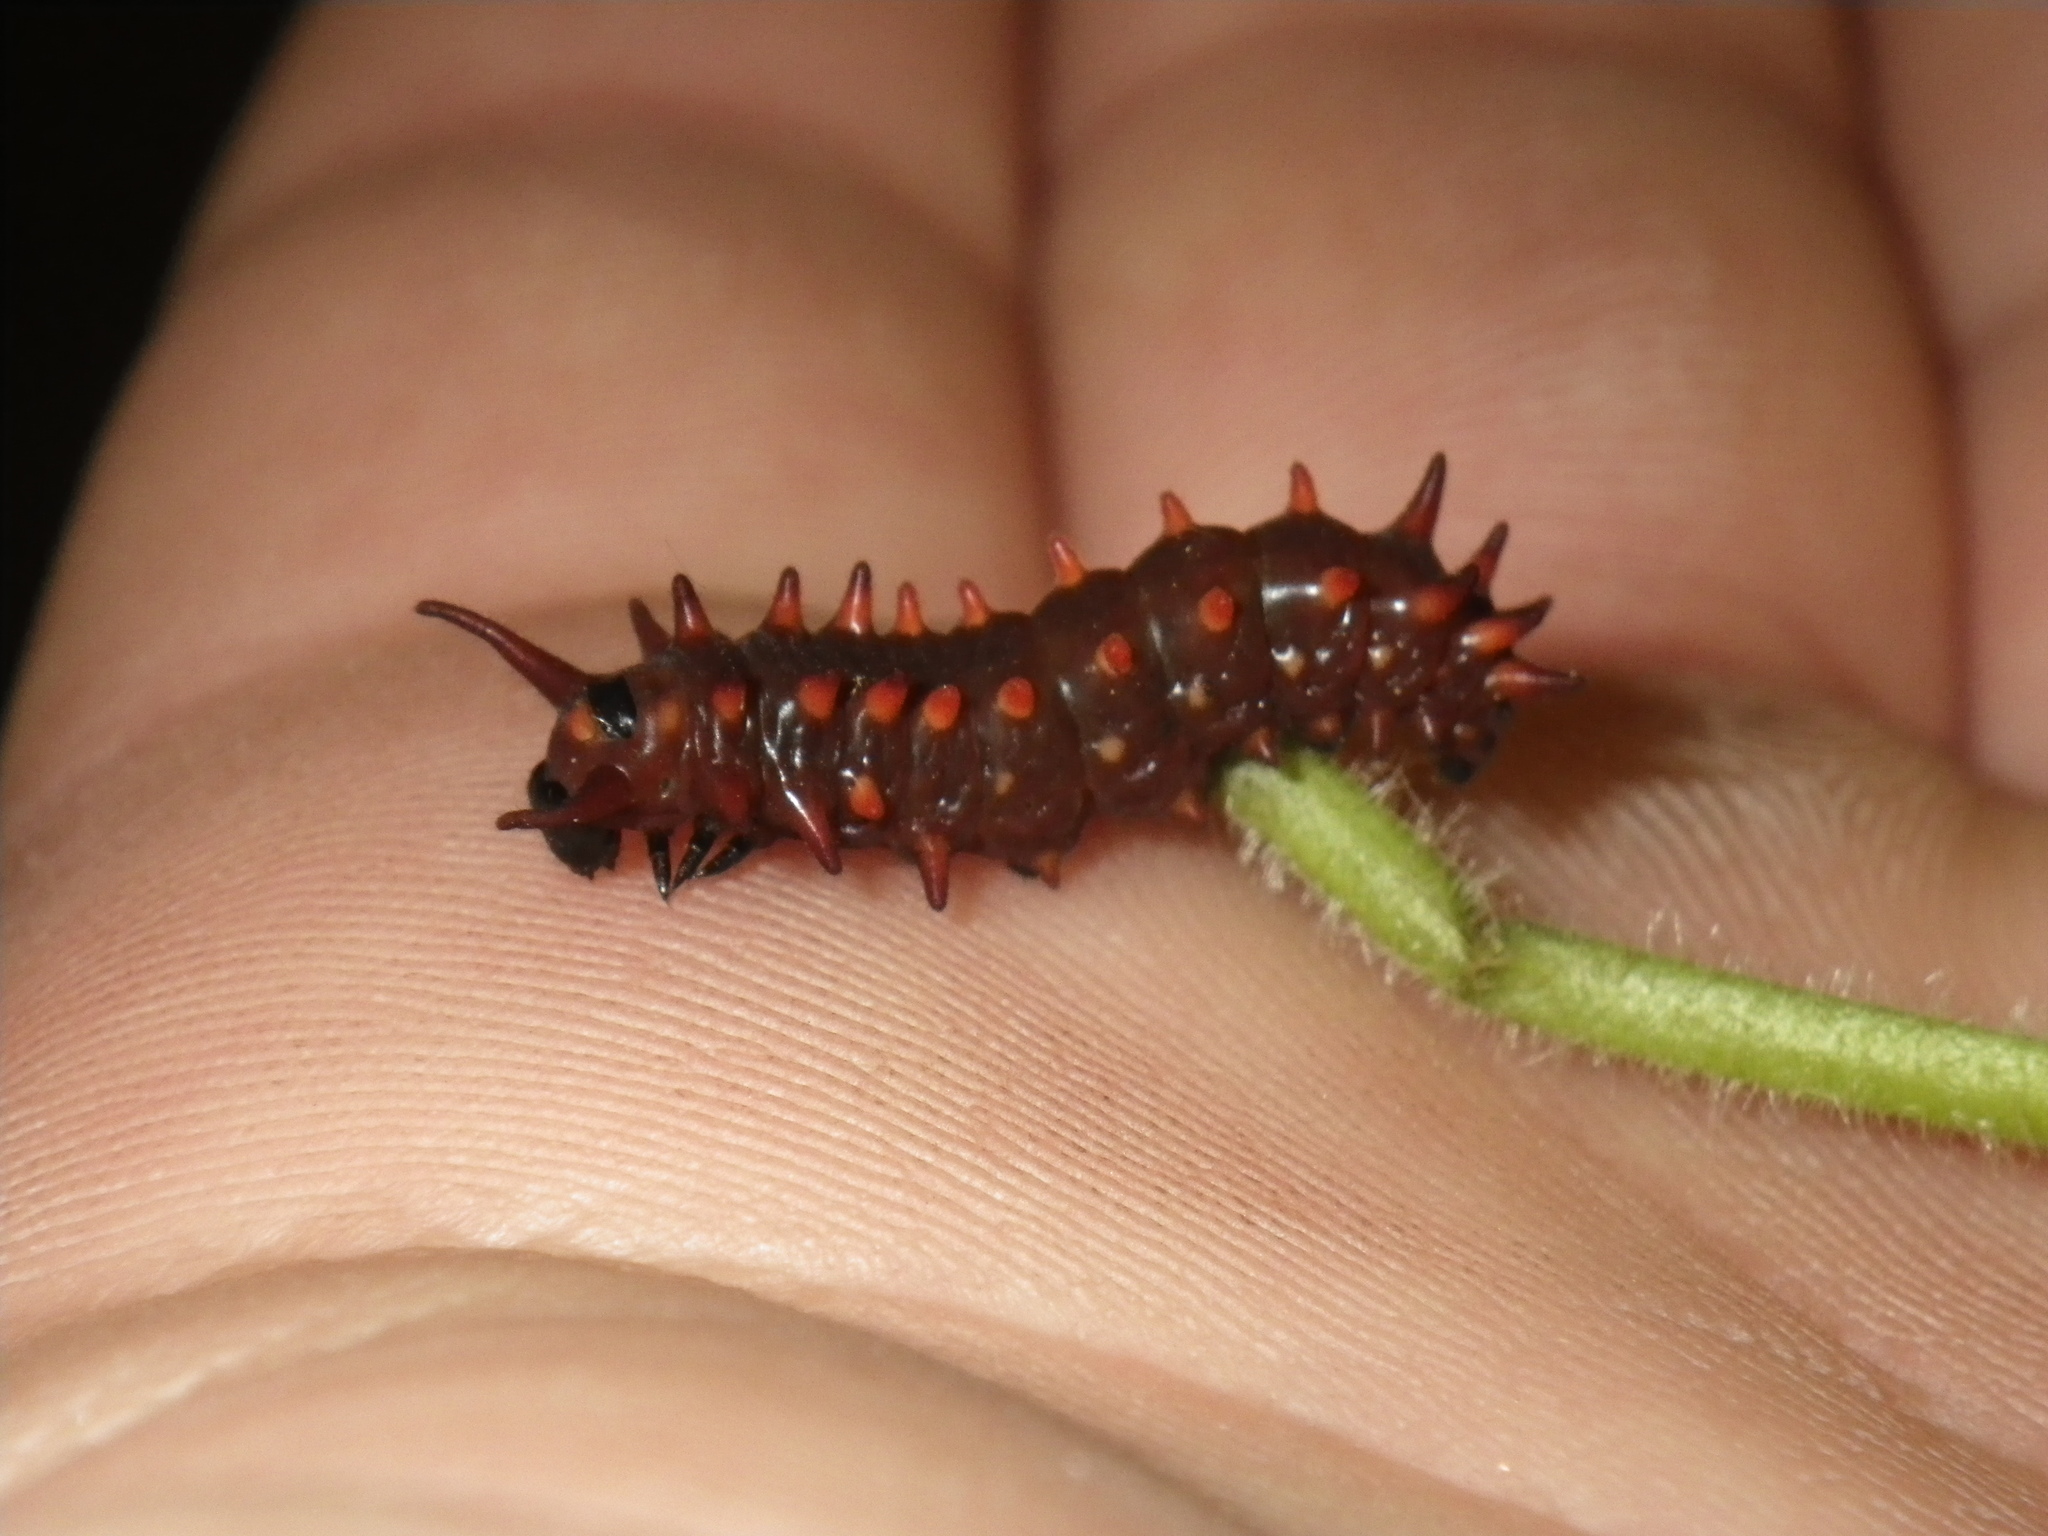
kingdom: Animalia
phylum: Arthropoda
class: Insecta
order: Lepidoptera
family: Papilionidae
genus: Battus
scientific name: Battus philenor
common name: Pipevine swallowtail
